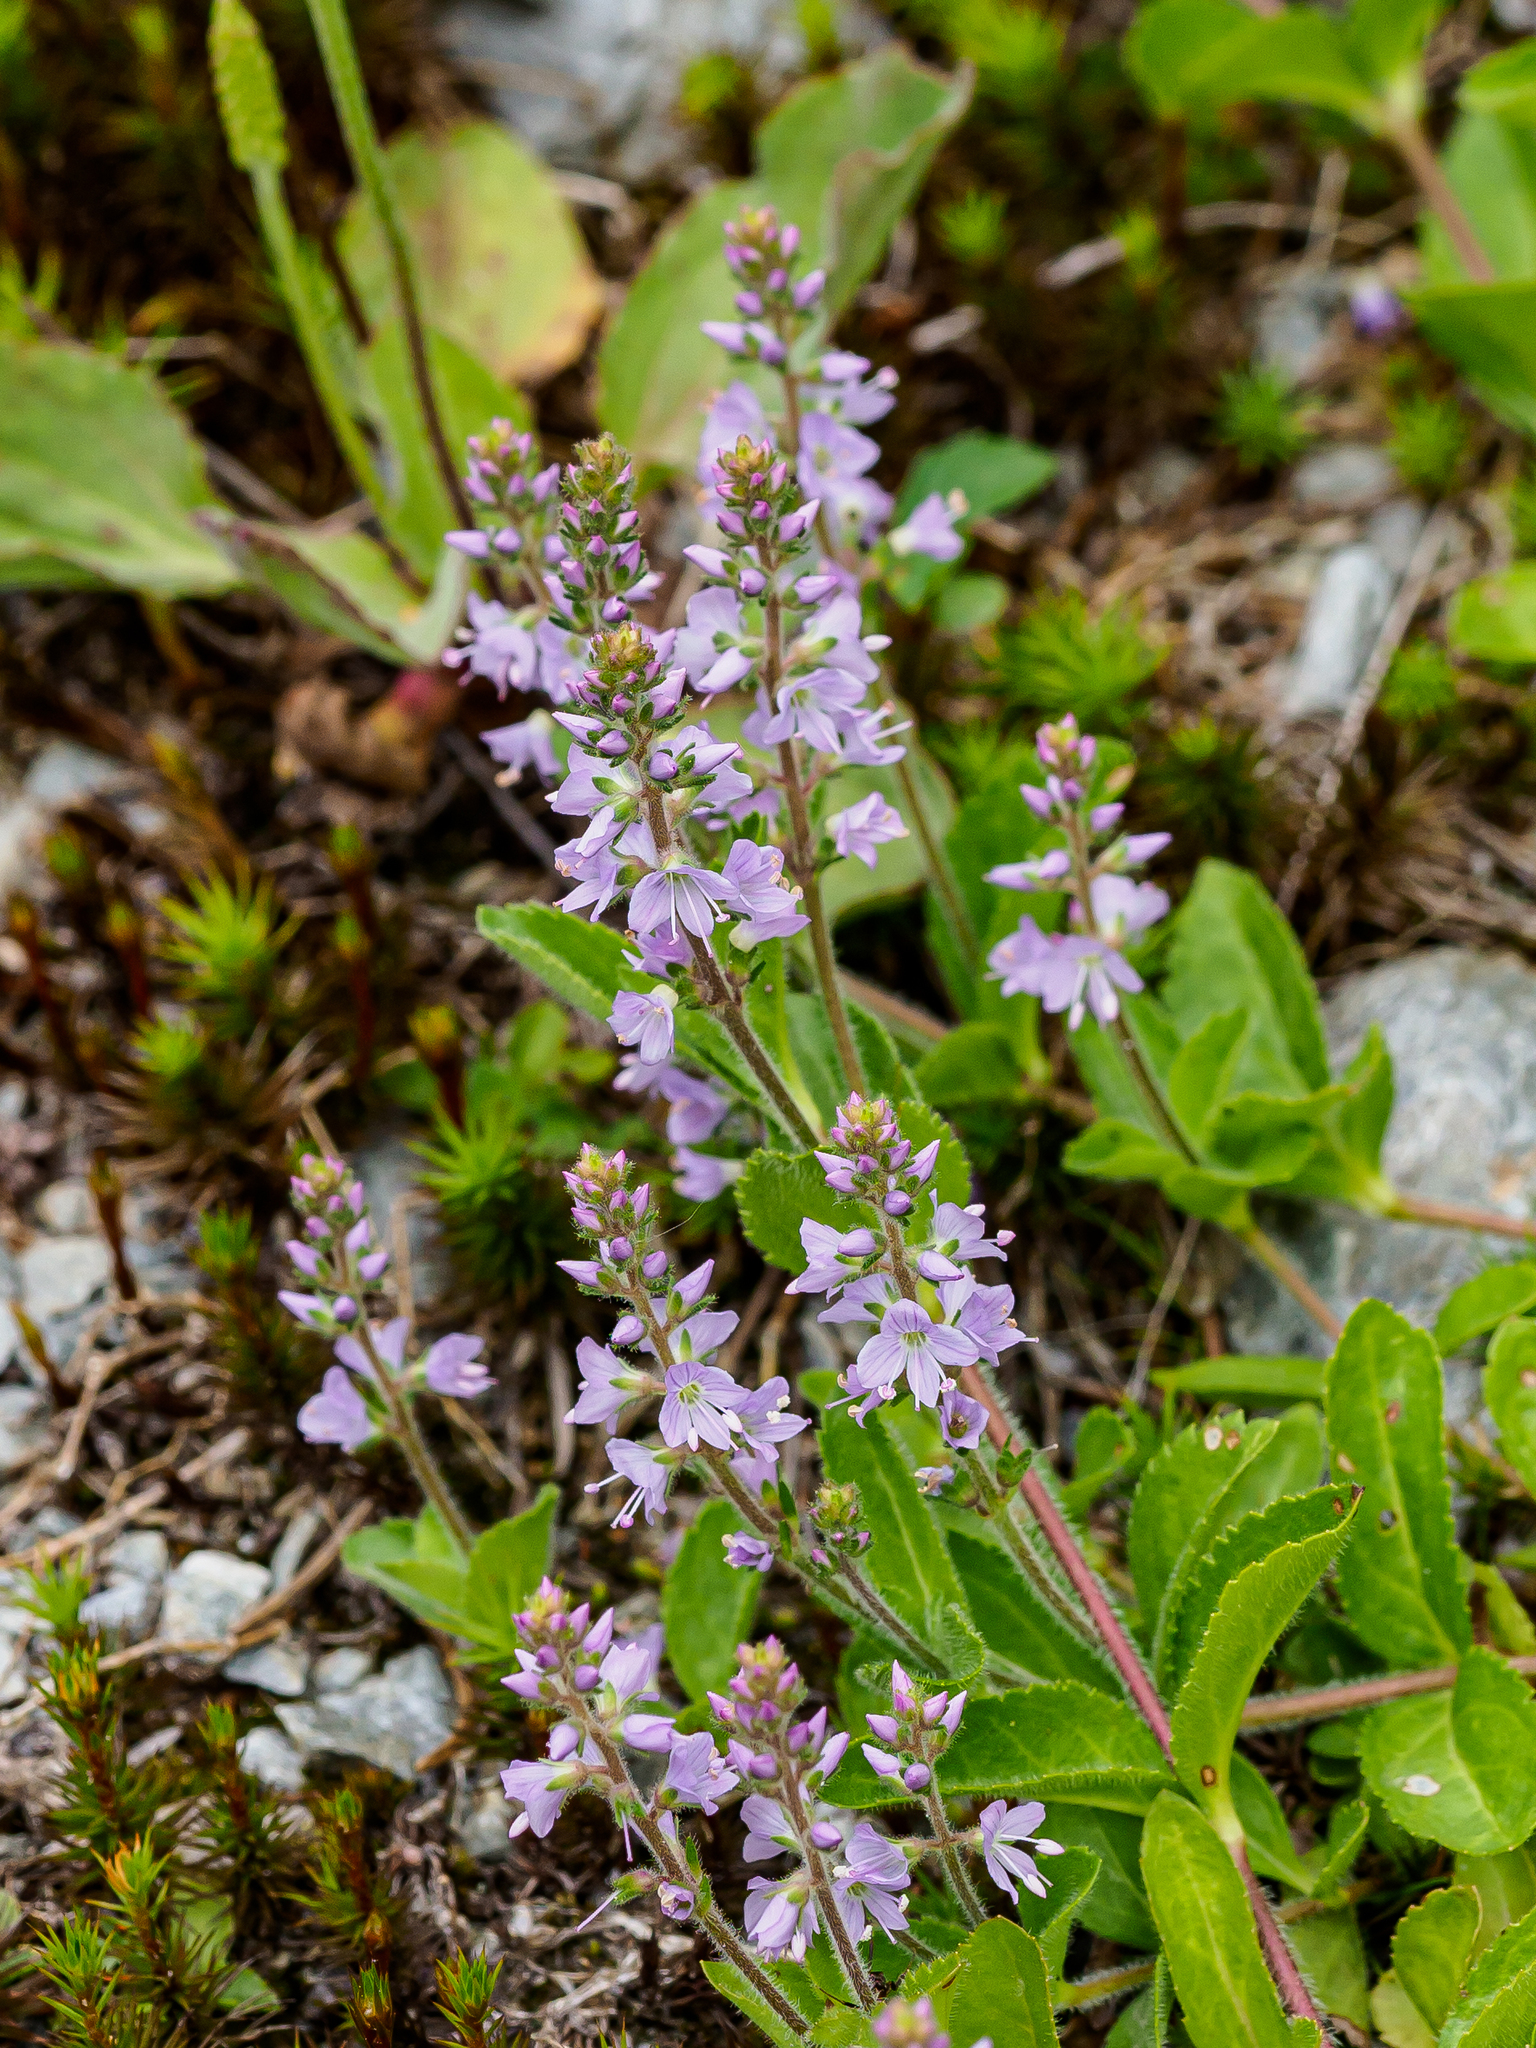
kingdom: Plantae
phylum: Tracheophyta
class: Magnoliopsida
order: Lamiales
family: Plantaginaceae
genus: Veronica
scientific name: Veronica officinalis
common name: Common speedwell
